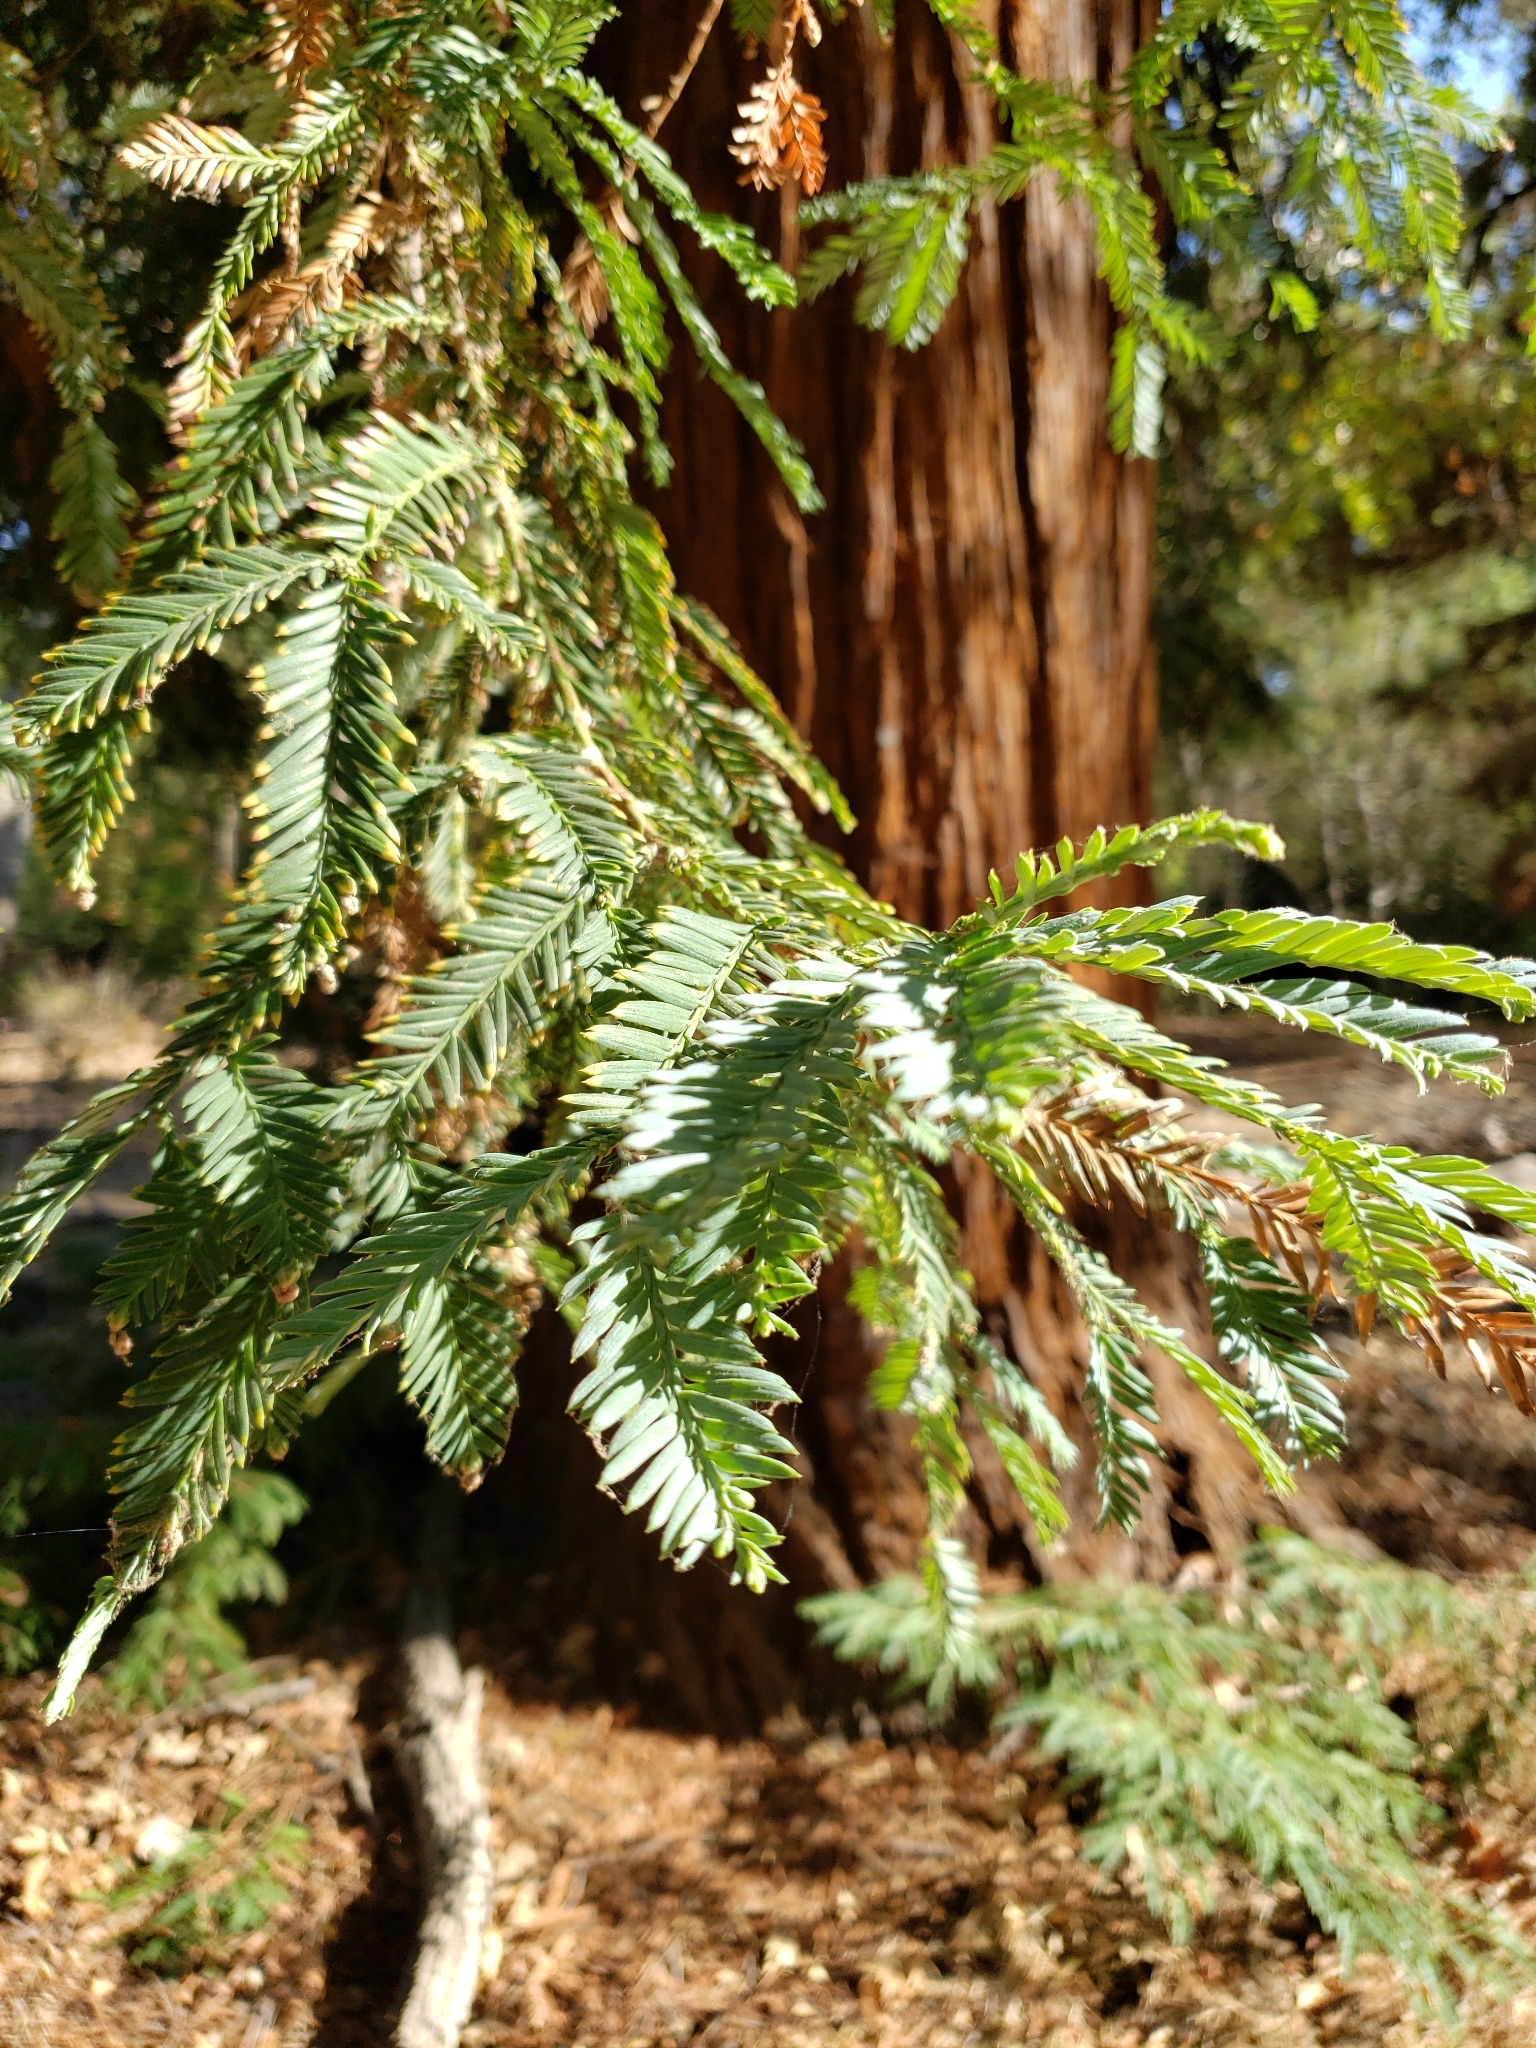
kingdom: Plantae
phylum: Tracheophyta
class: Pinopsida
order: Pinales
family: Cupressaceae
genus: Sequoia
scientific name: Sequoia sempervirens
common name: Coast redwood
